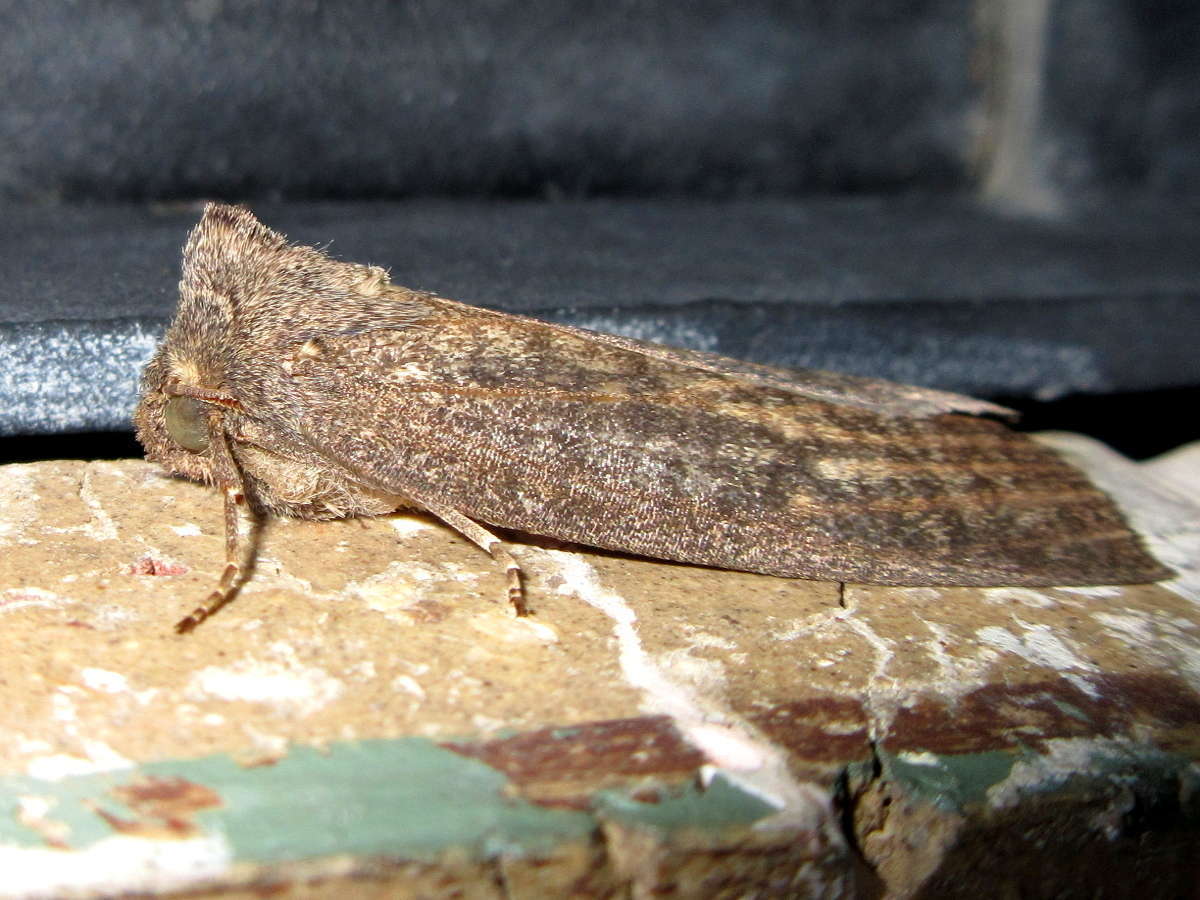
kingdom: Animalia
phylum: Arthropoda
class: Insecta
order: Lepidoptera
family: Geometridae
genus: Paralaea
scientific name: Paralaea beggaria
